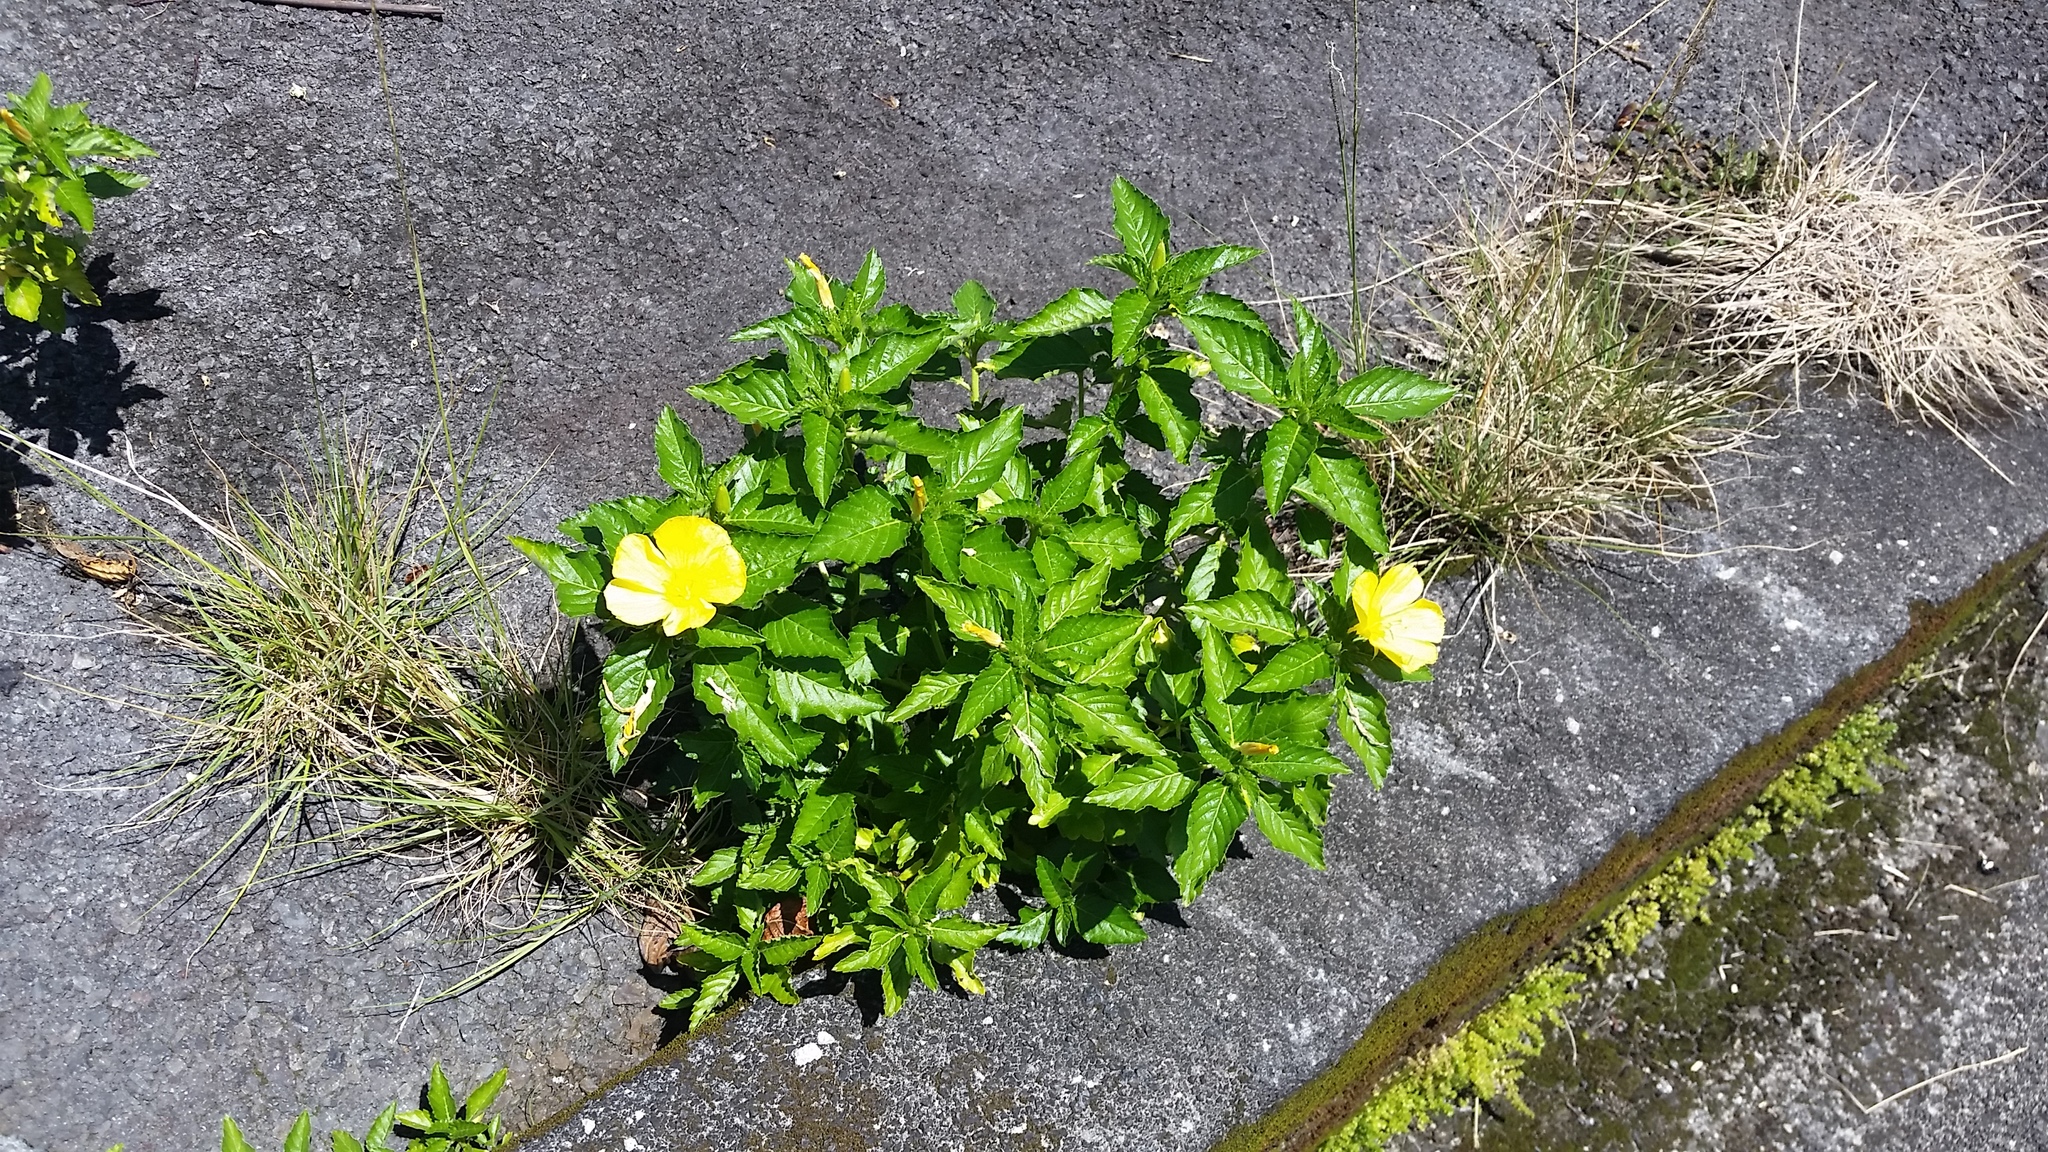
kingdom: Plantae
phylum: Tracheophyta
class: Magnoliopsida
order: Malpighiales
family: Turneraceae
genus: Turnera
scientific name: Turnera ulmifolia
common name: Ramgoat dashalong
